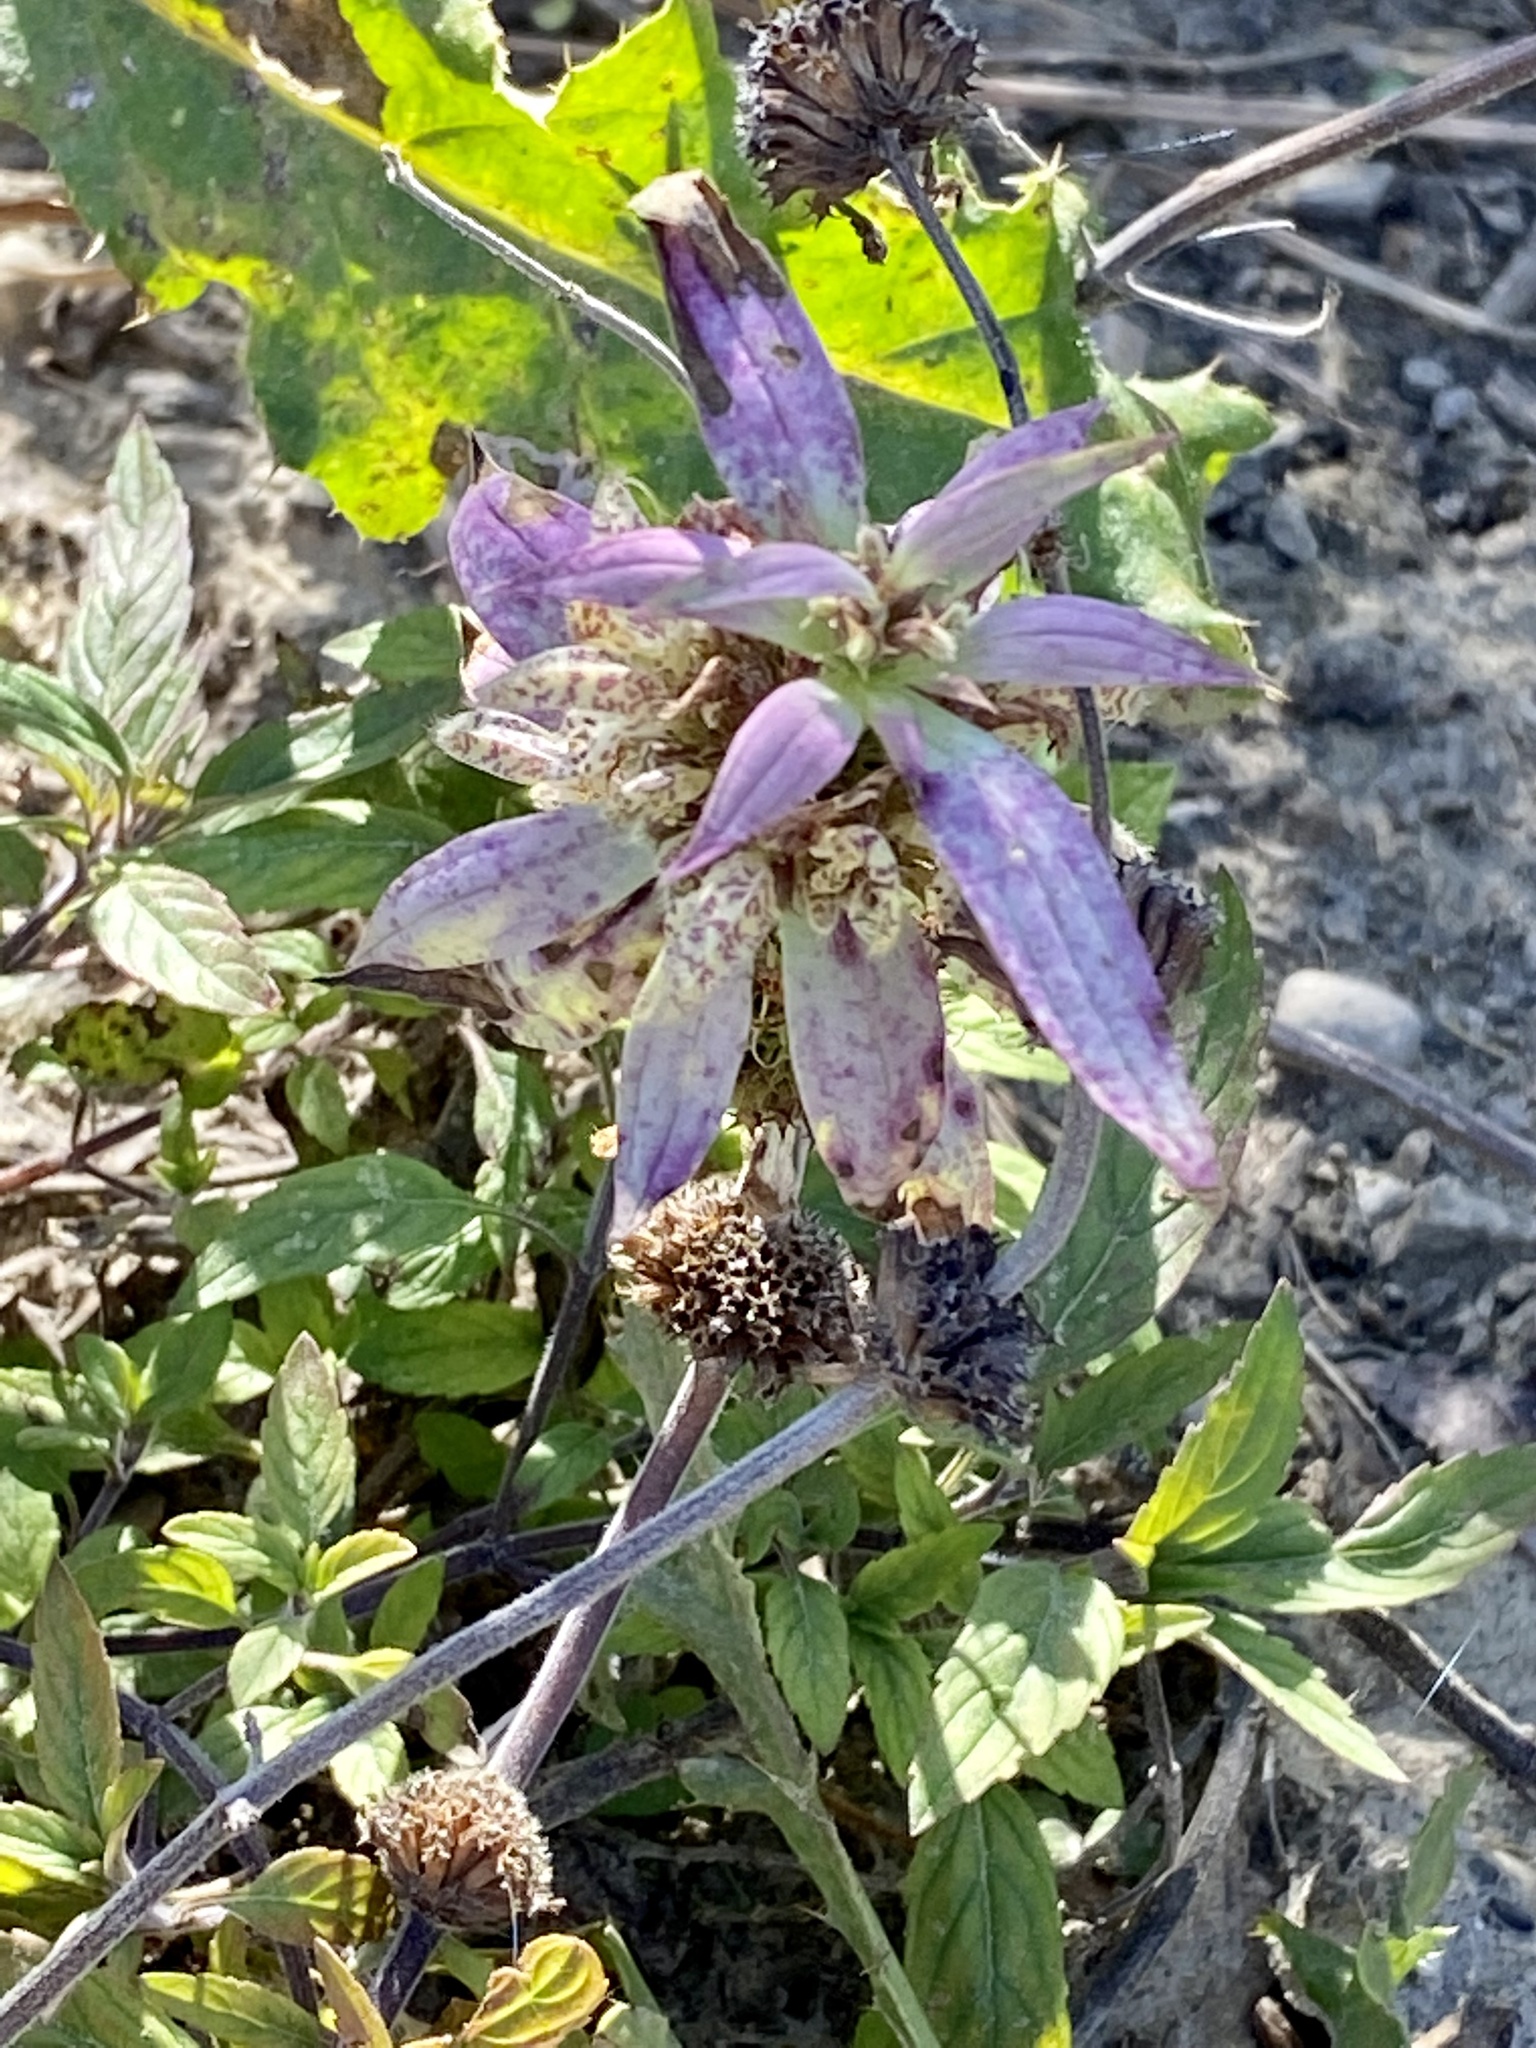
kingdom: Plantae
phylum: Tracheophyta
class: Magnoliopsida
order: Lamiales
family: Lamiaceae
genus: Monarda
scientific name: Monarda punctata
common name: Dotted monarda
